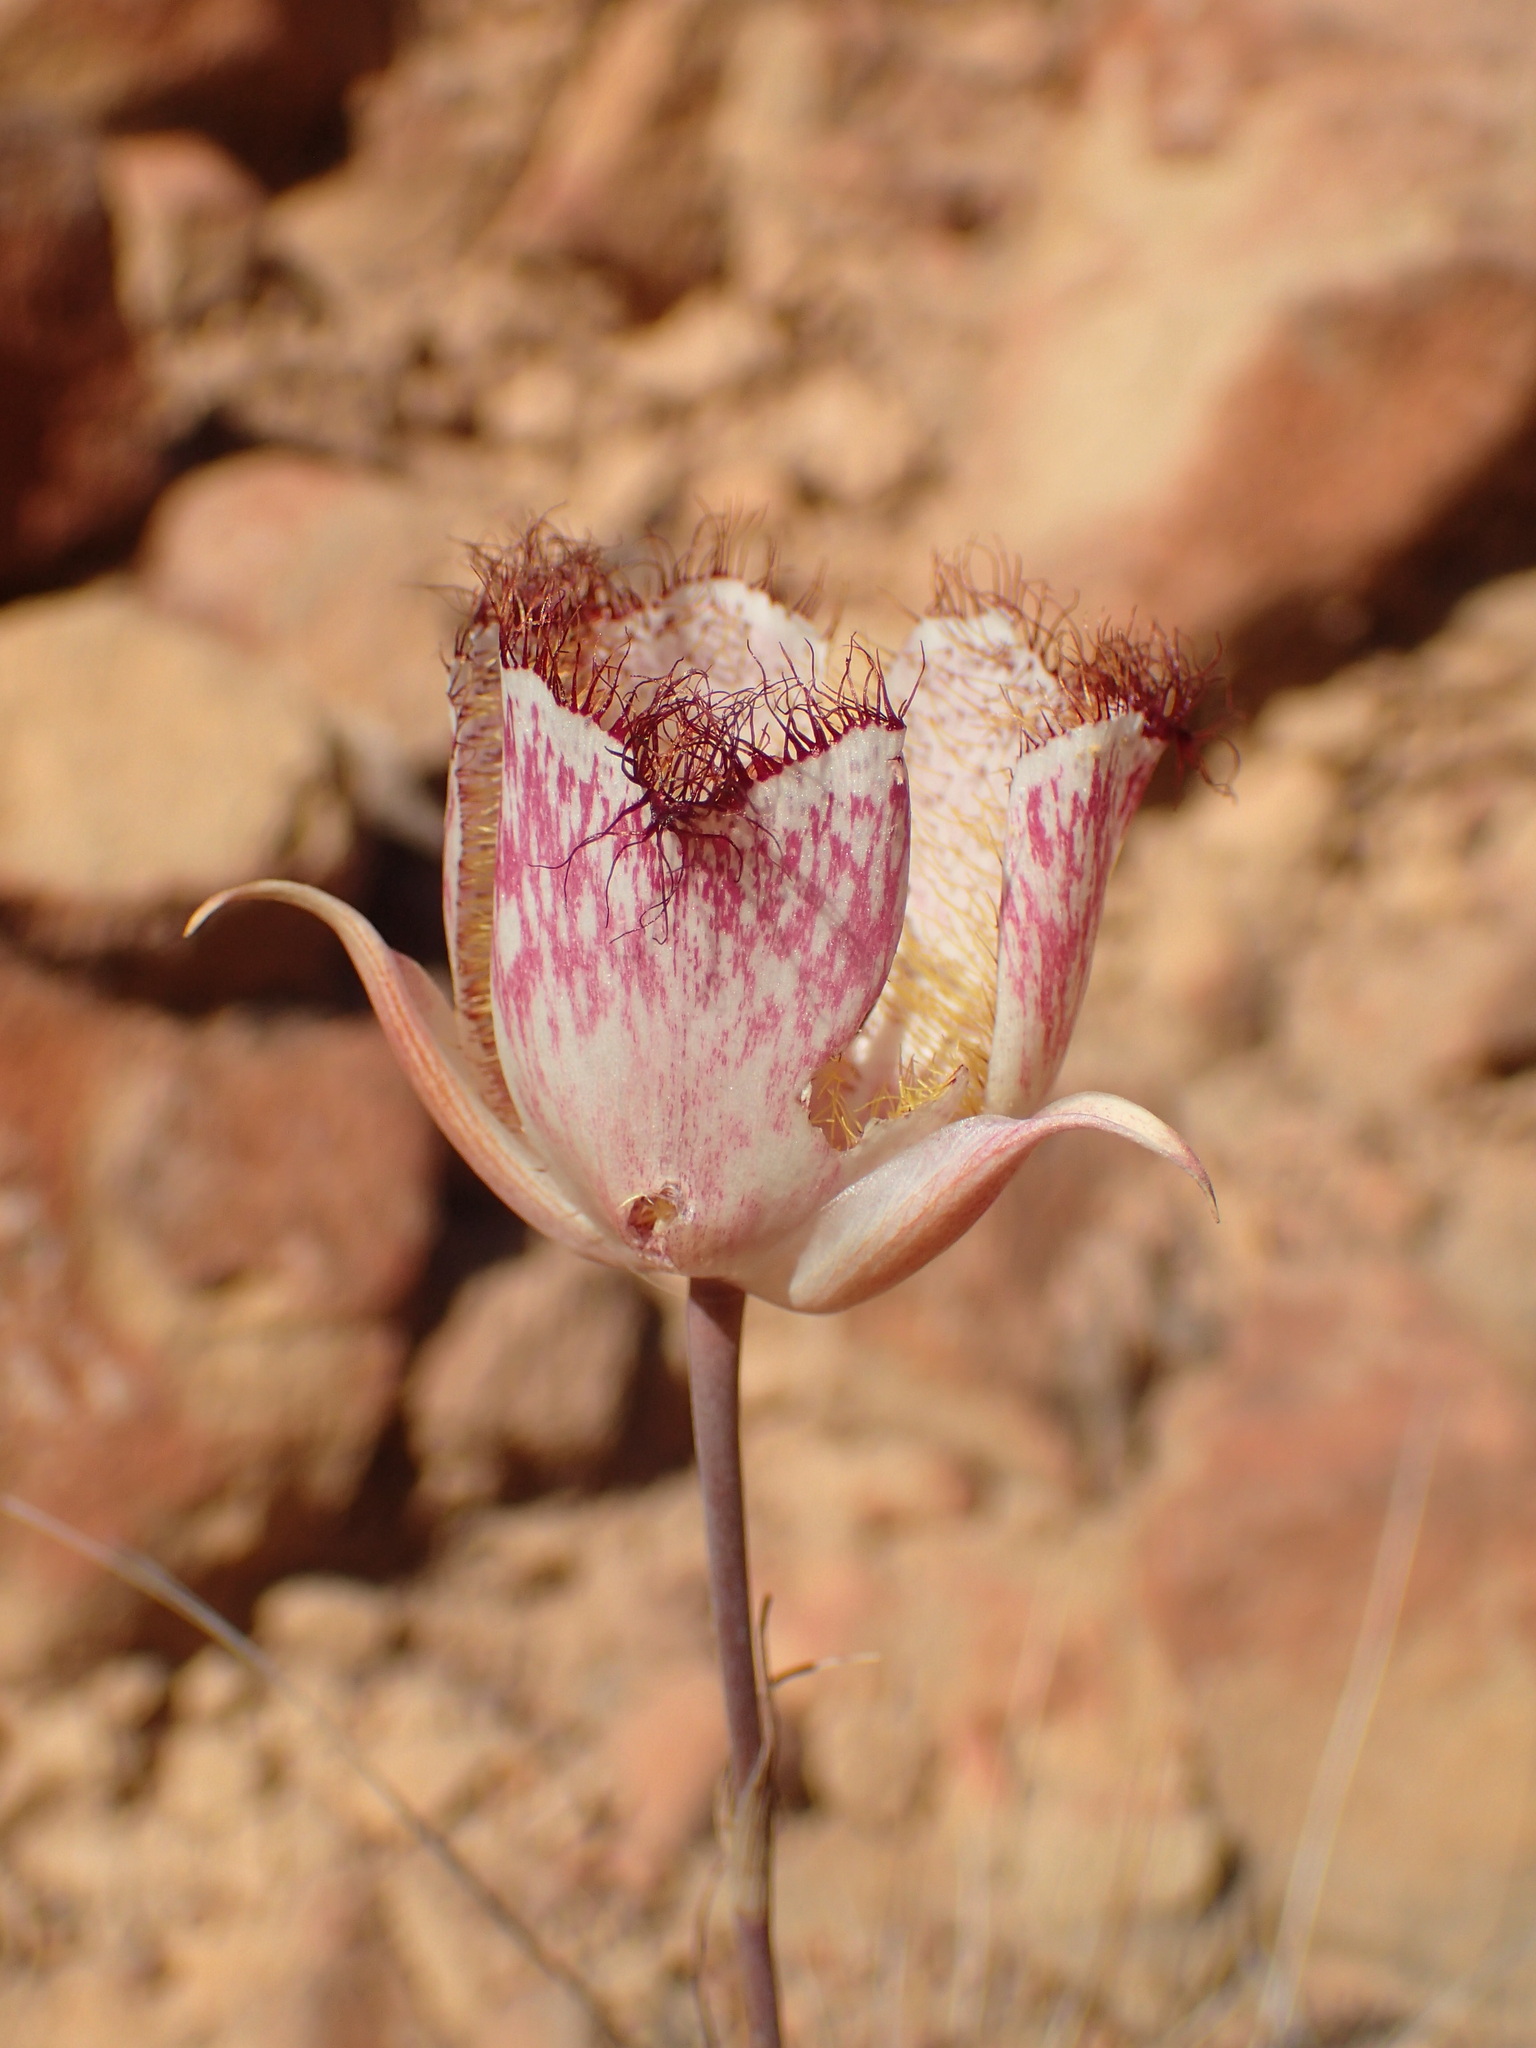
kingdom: Plantae
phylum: Tracheophyta
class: Liliopsida
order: Liliales
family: Liliaceae
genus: Calochortus
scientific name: Calochortus fimbriatus
